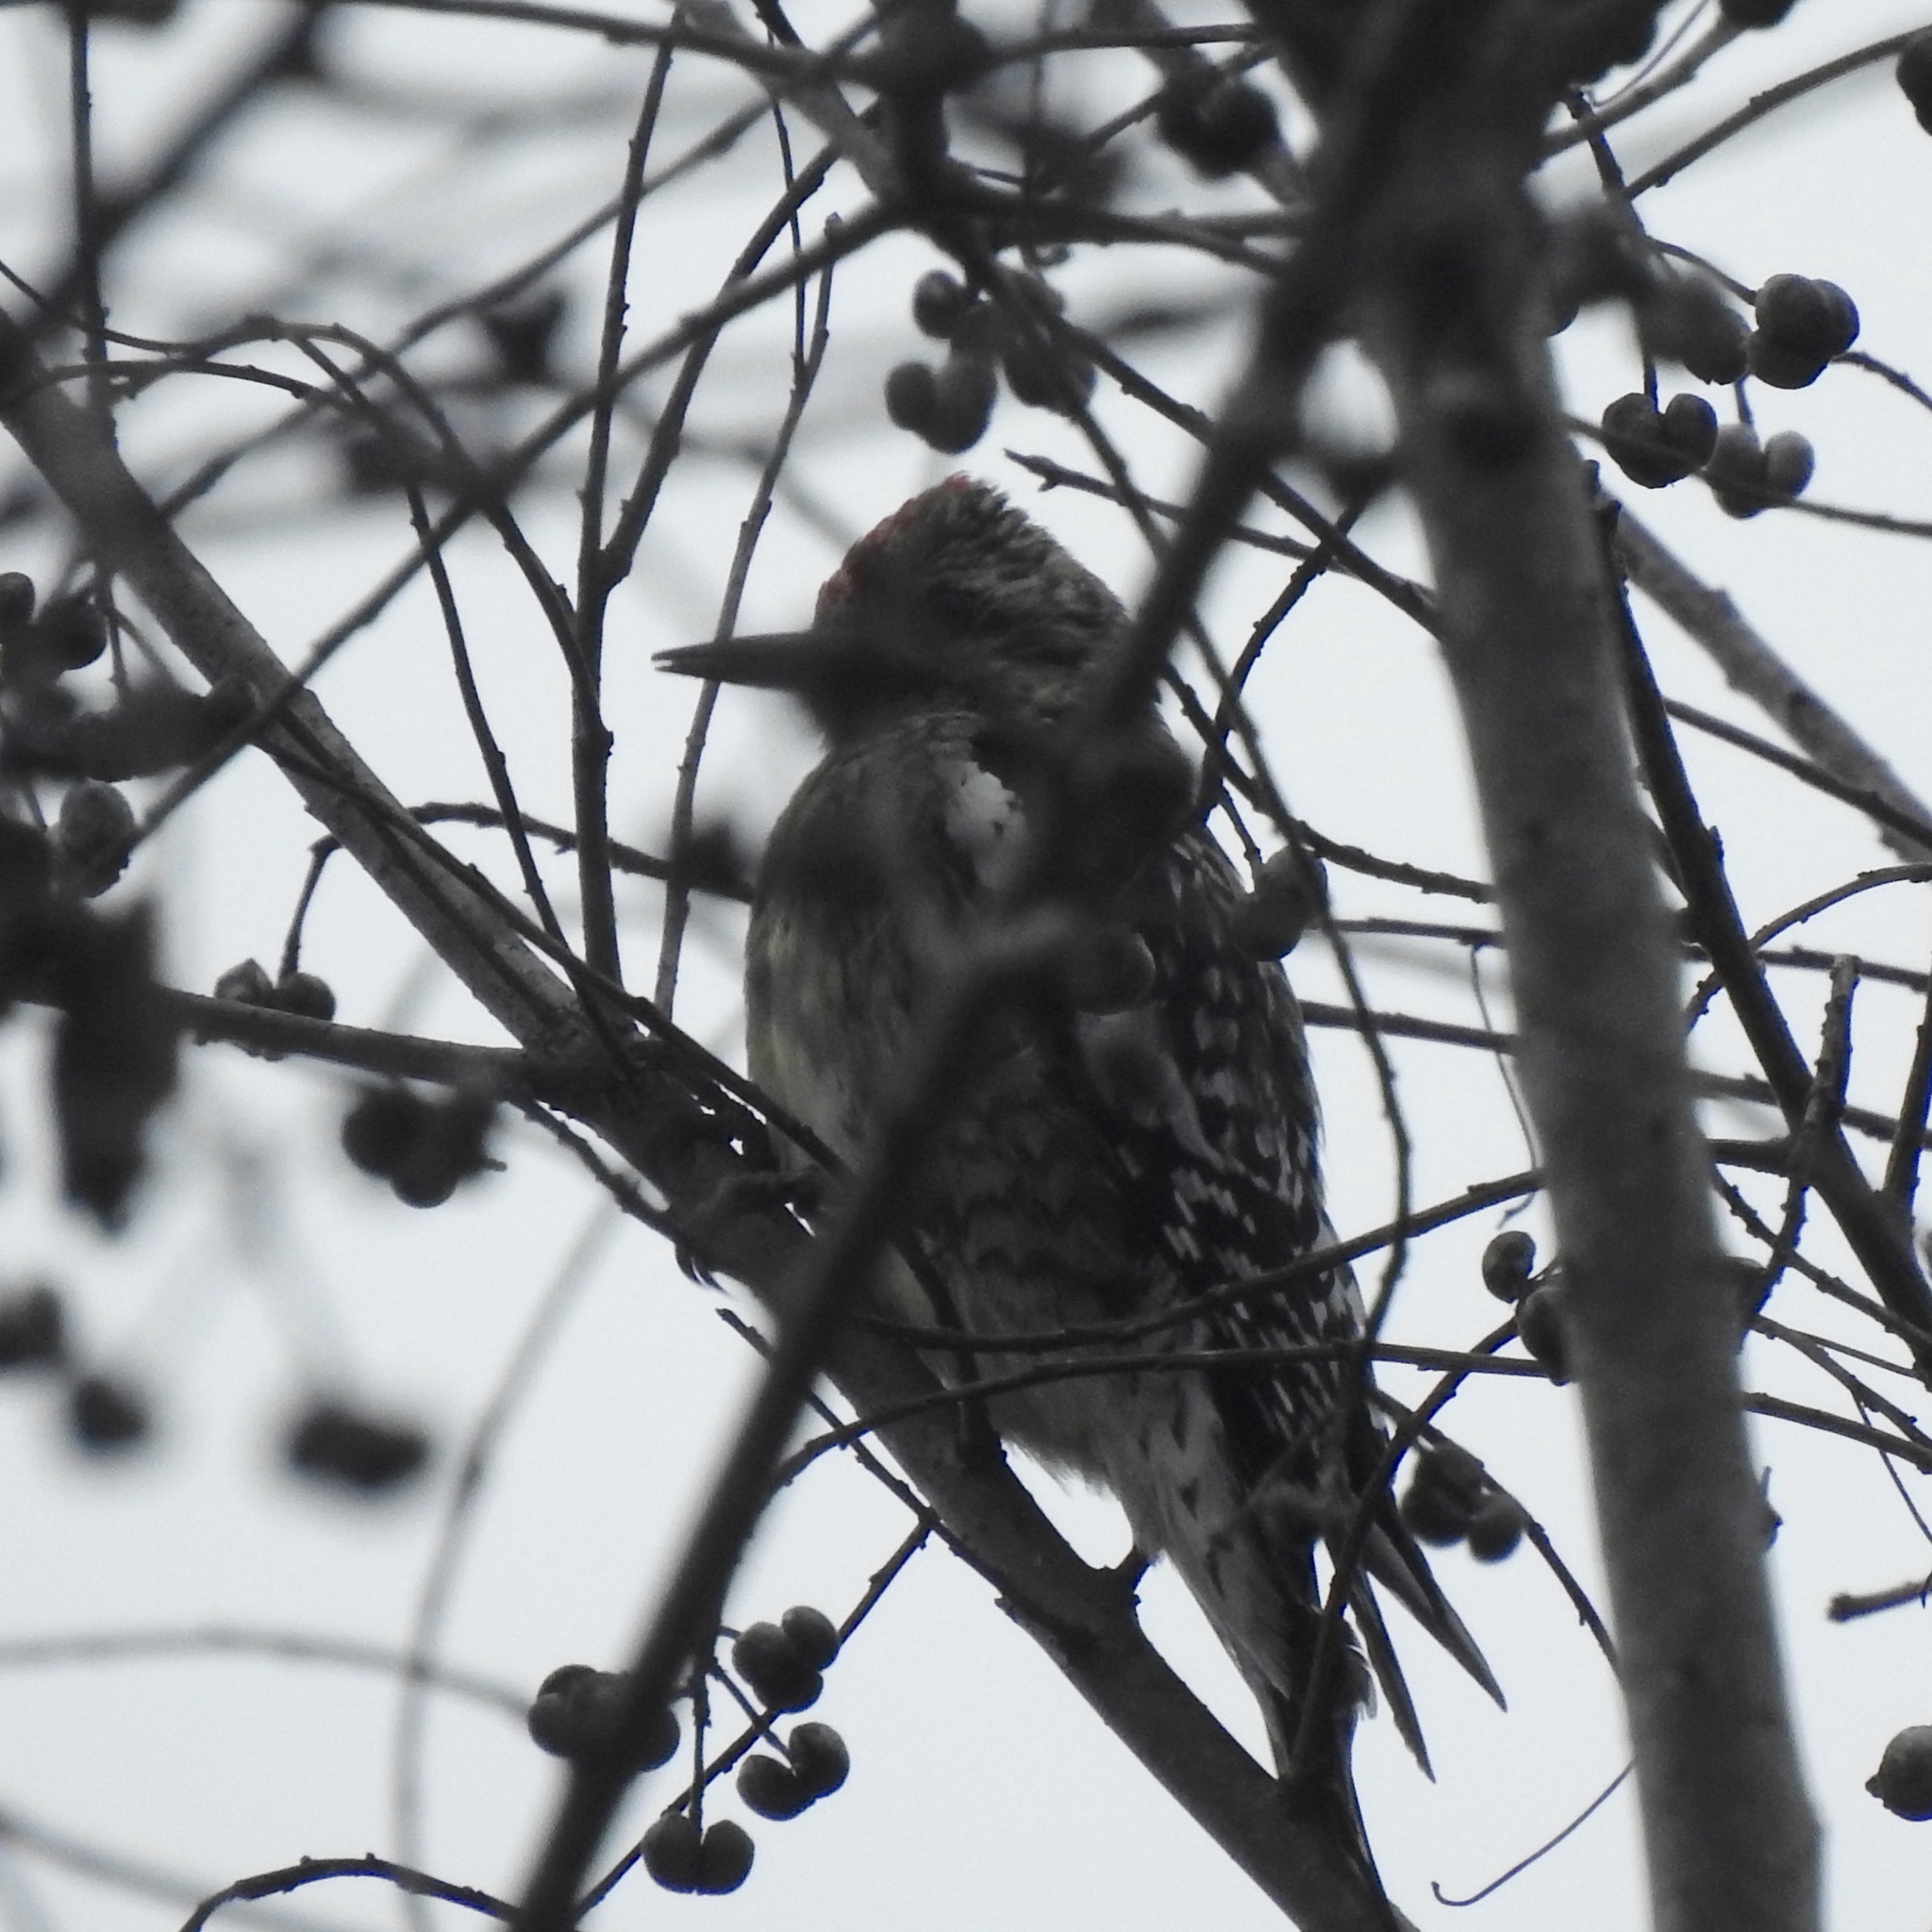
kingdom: Animalia
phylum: Chordata
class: Aves
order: Piciformes
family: Picidae
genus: Sphyrapicus
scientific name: Sphyrapicus varius
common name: Yellow-bellied sapsucker
